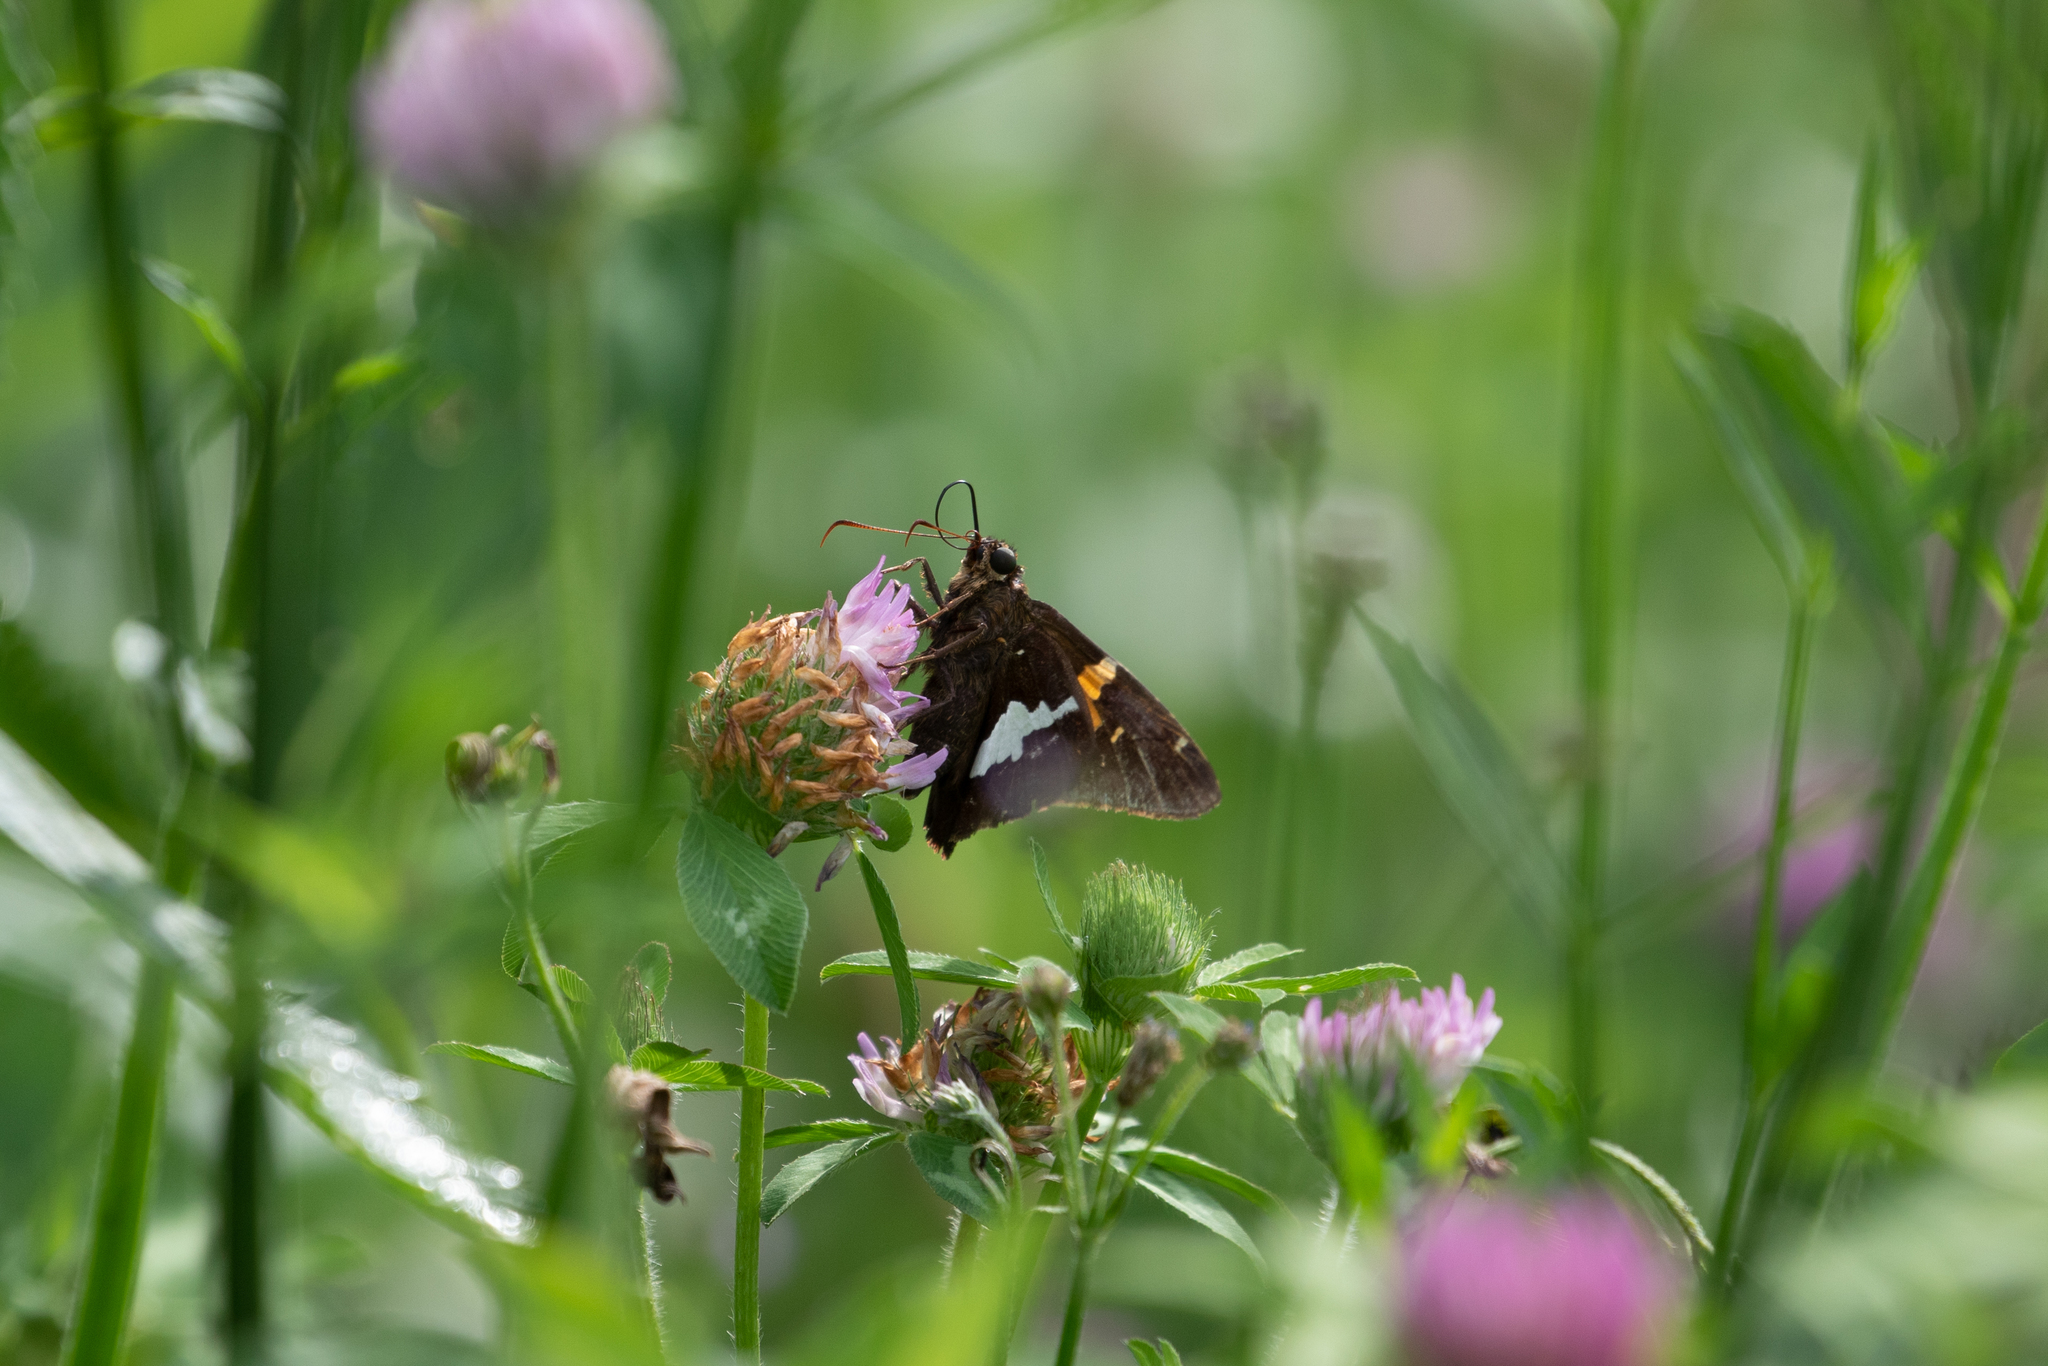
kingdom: Animalia
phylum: Arthropoda
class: Insecta
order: Lepidoptera
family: Hesperiidae
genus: Epargyreus
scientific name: Epargyreus clarus
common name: Silver-spotted skipper
